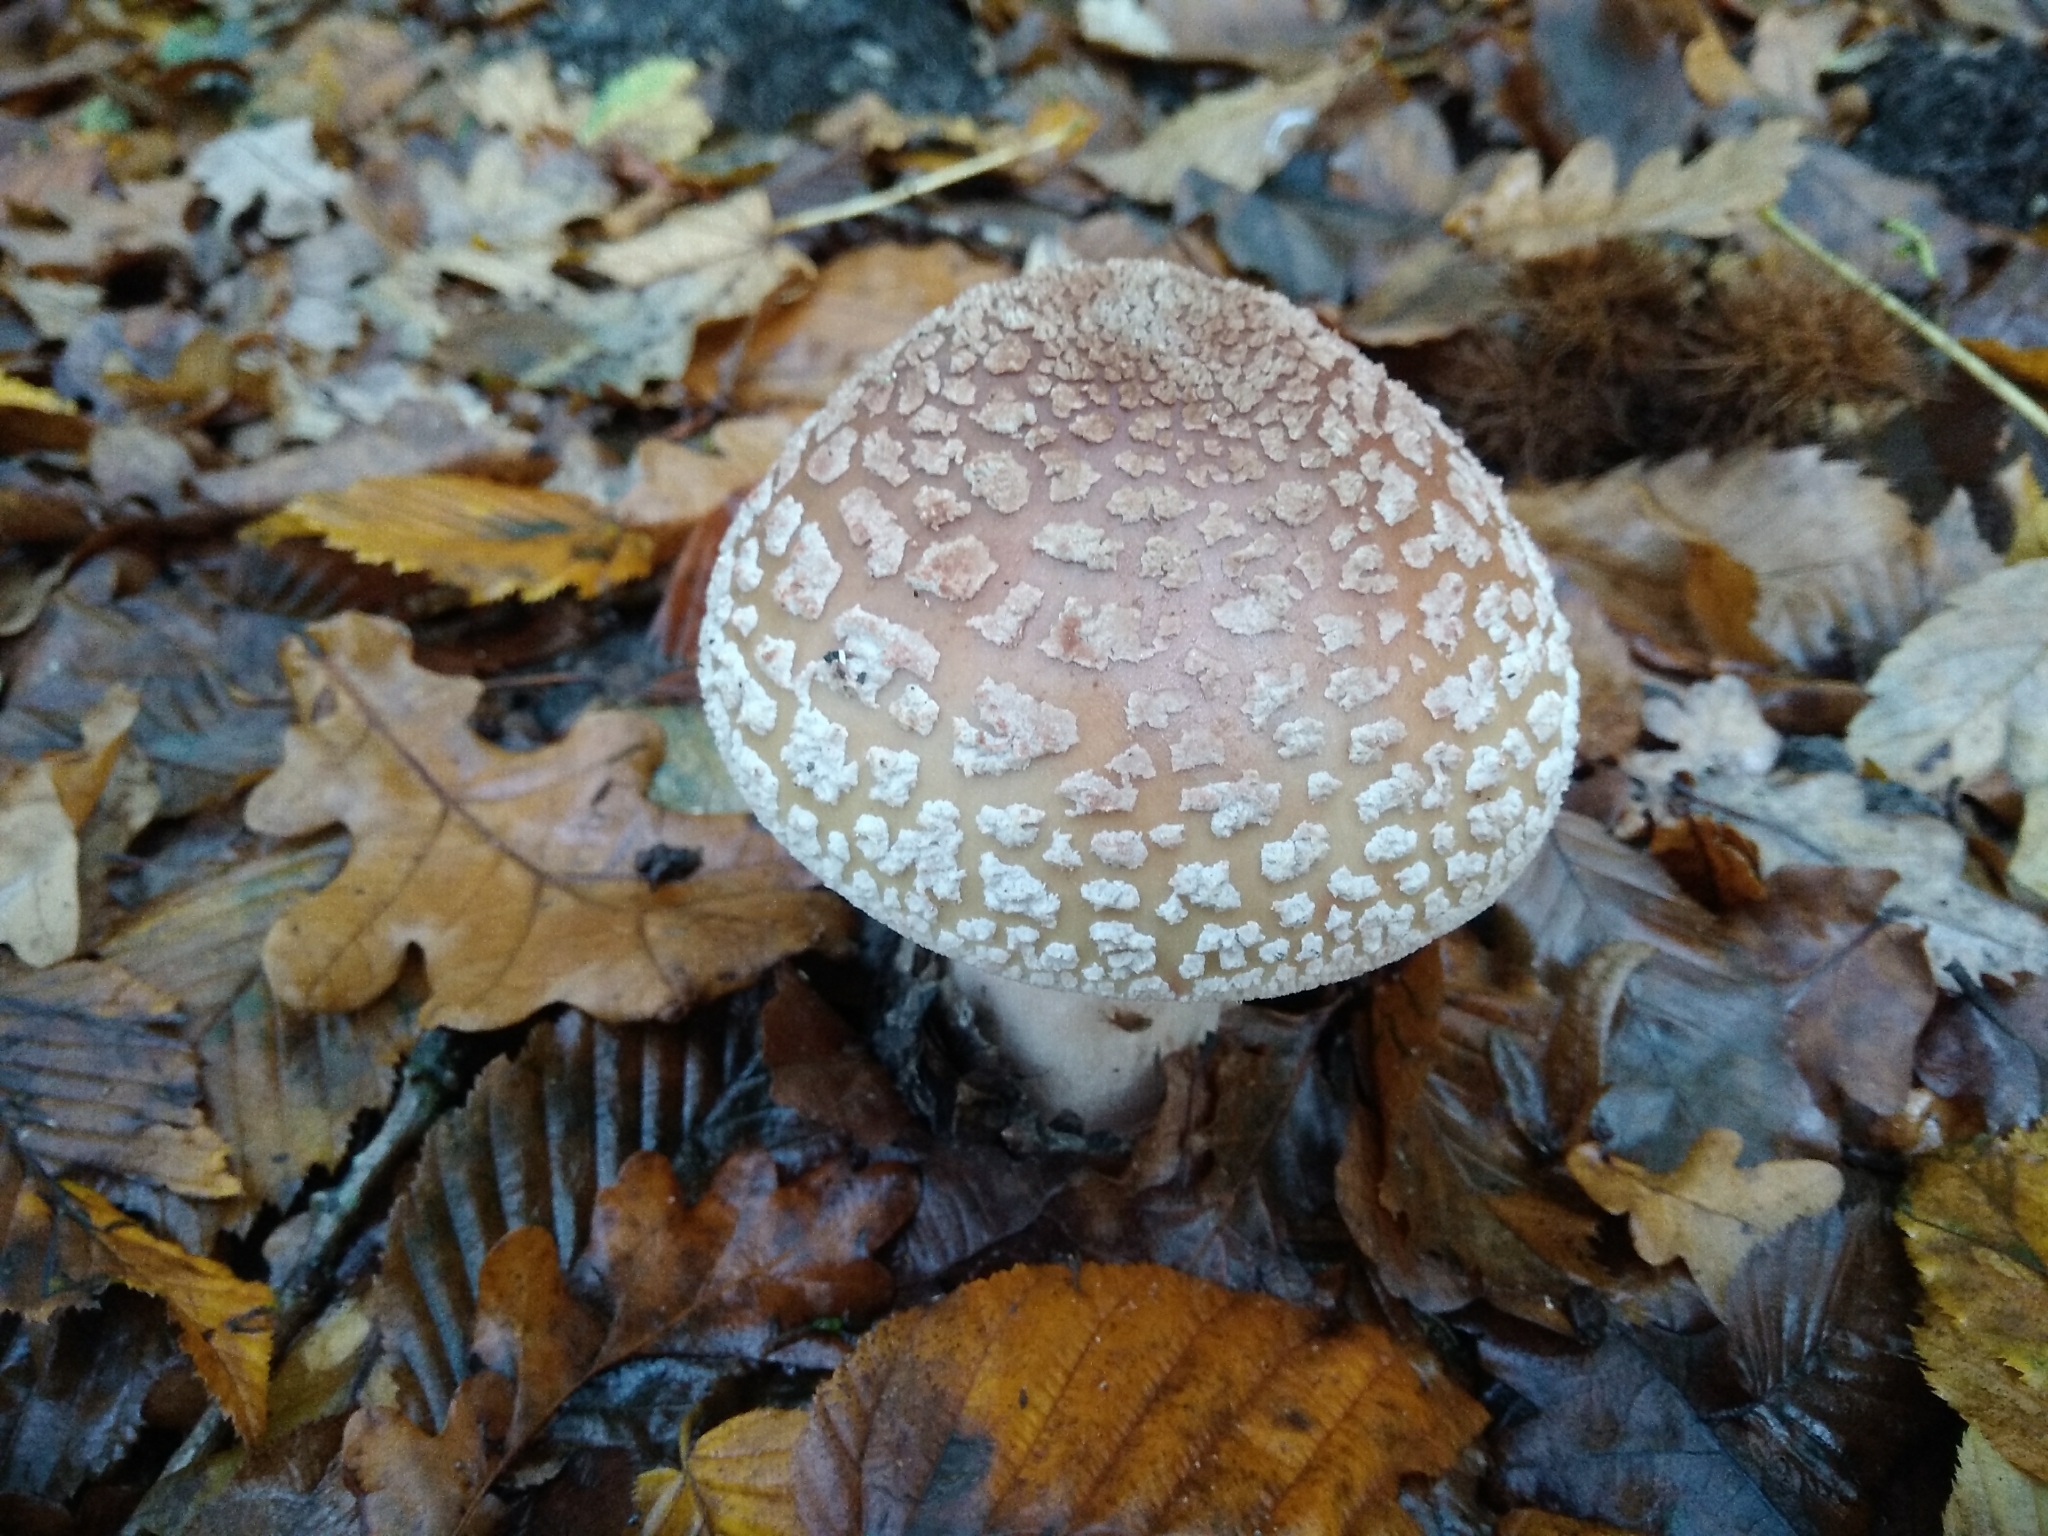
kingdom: Fungi
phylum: Basidiomycota
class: Agaricomycetes
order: Agaricales
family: Amanitaceae
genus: Amanita
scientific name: Amanita rubescens
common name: Blusher
